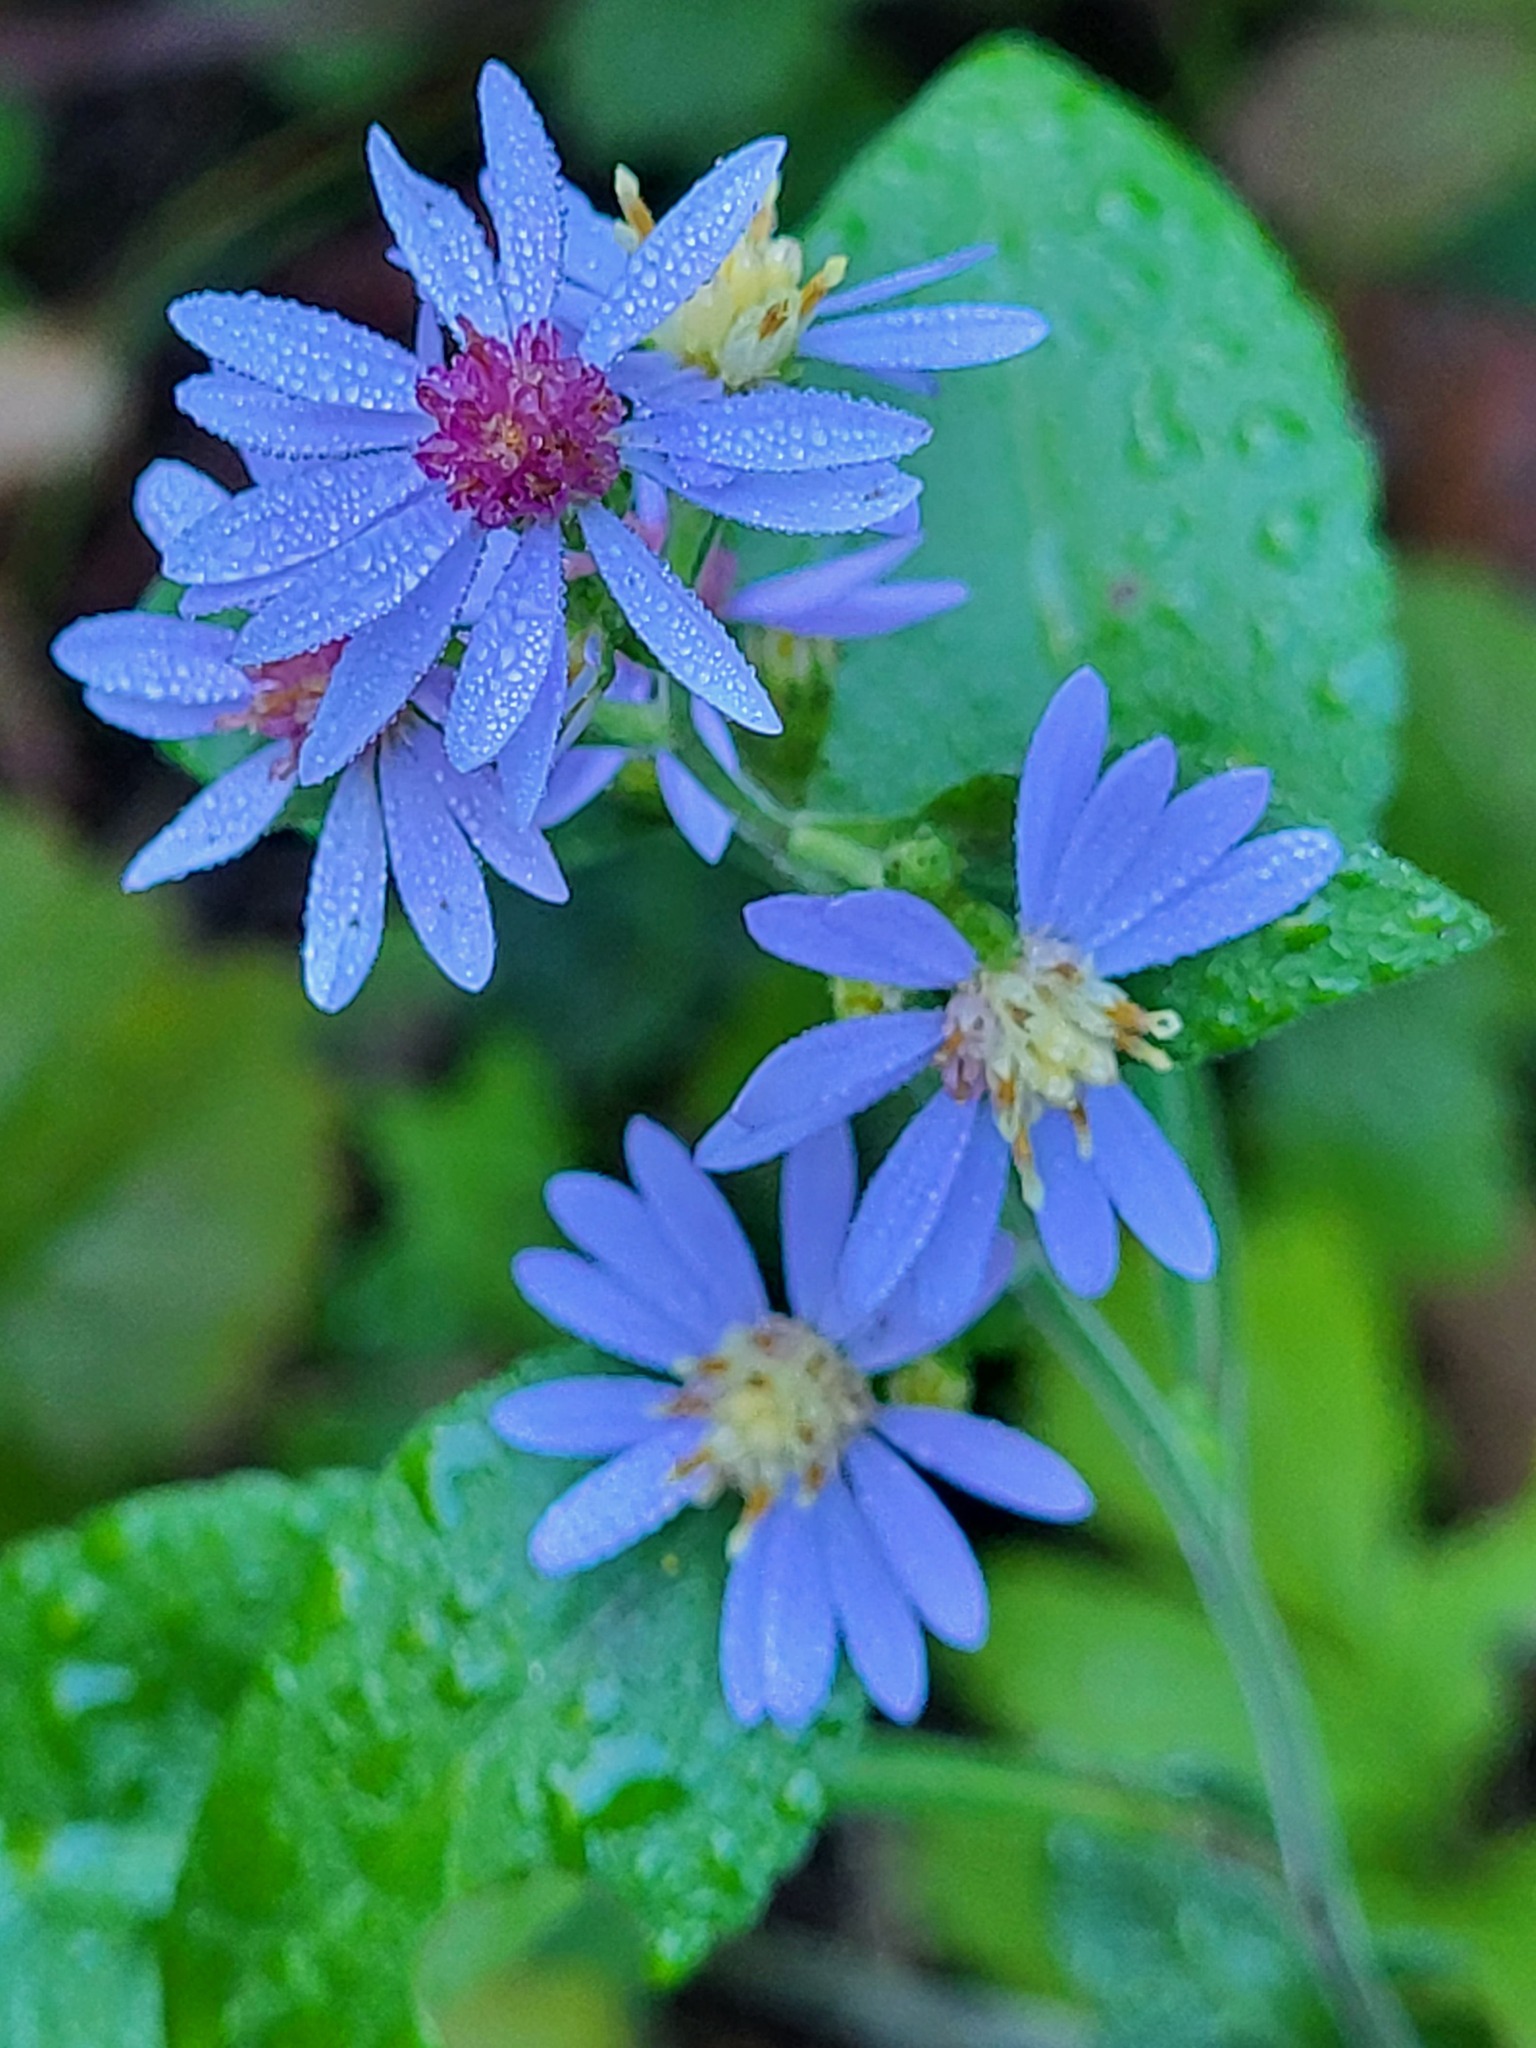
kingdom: Plantae
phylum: Tracheophyta
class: Magnoliopsida
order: Asterales
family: Asteraceae
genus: Symphyotrichum
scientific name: Symphyotrichum drummondii
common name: Drummond's aster
